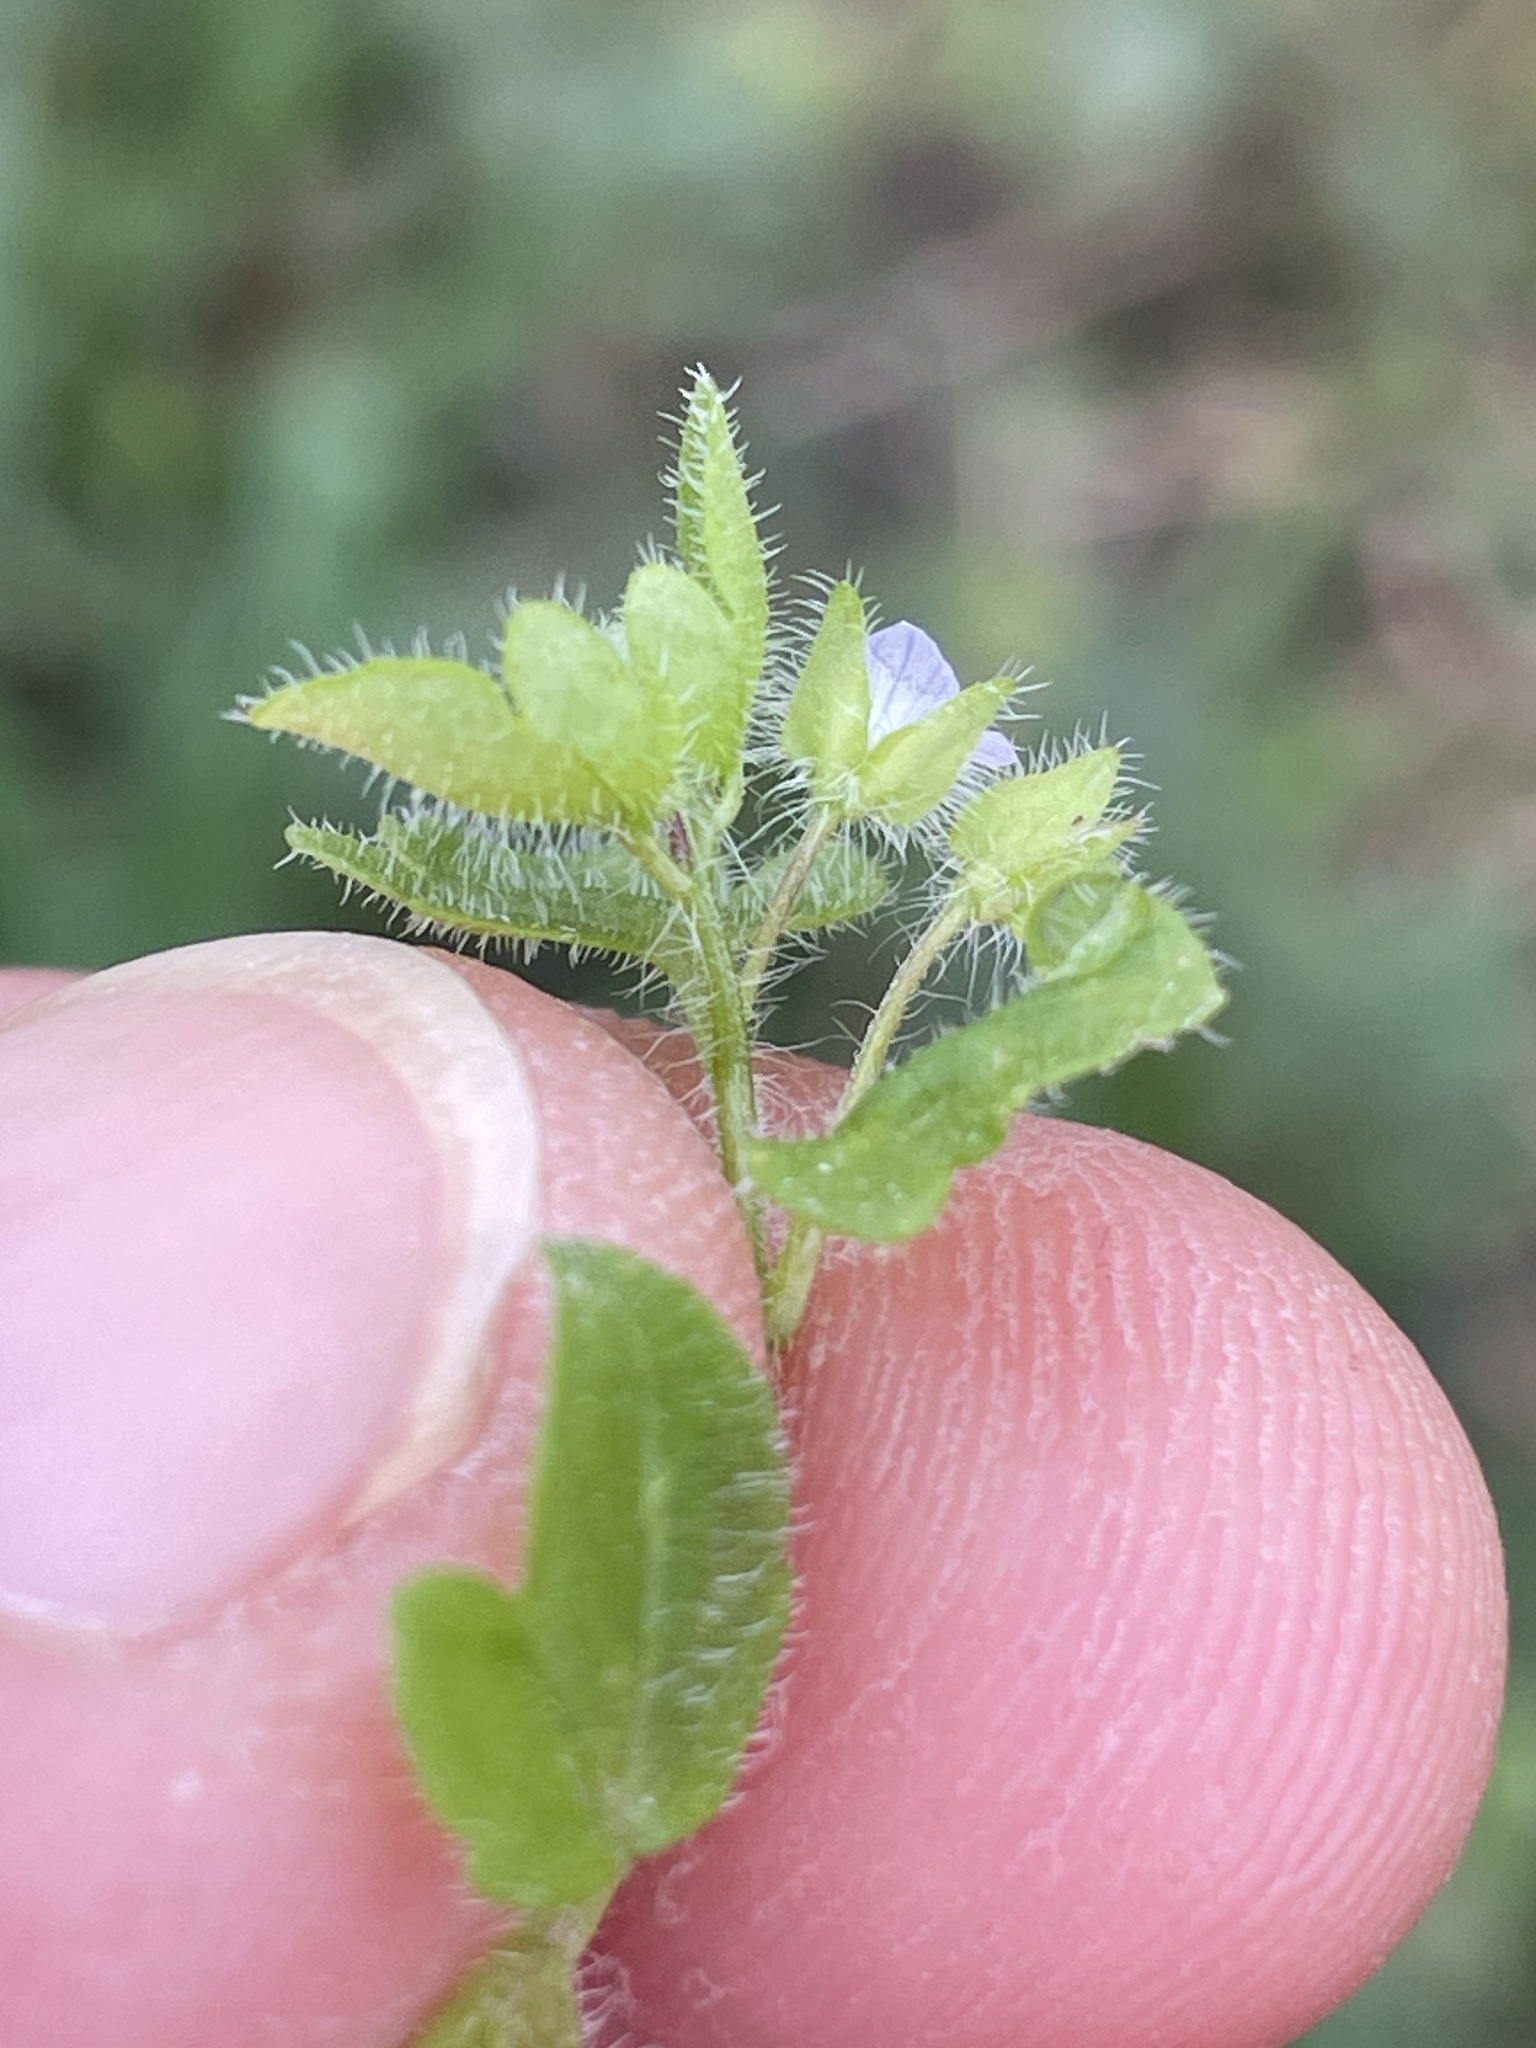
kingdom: Plantae
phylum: Tracheophyta
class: Magnoliopsida
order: Lamiales
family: Plantaginaceae
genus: Veronica
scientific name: Veronica sublobata
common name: False ivy-leaved speedwell
